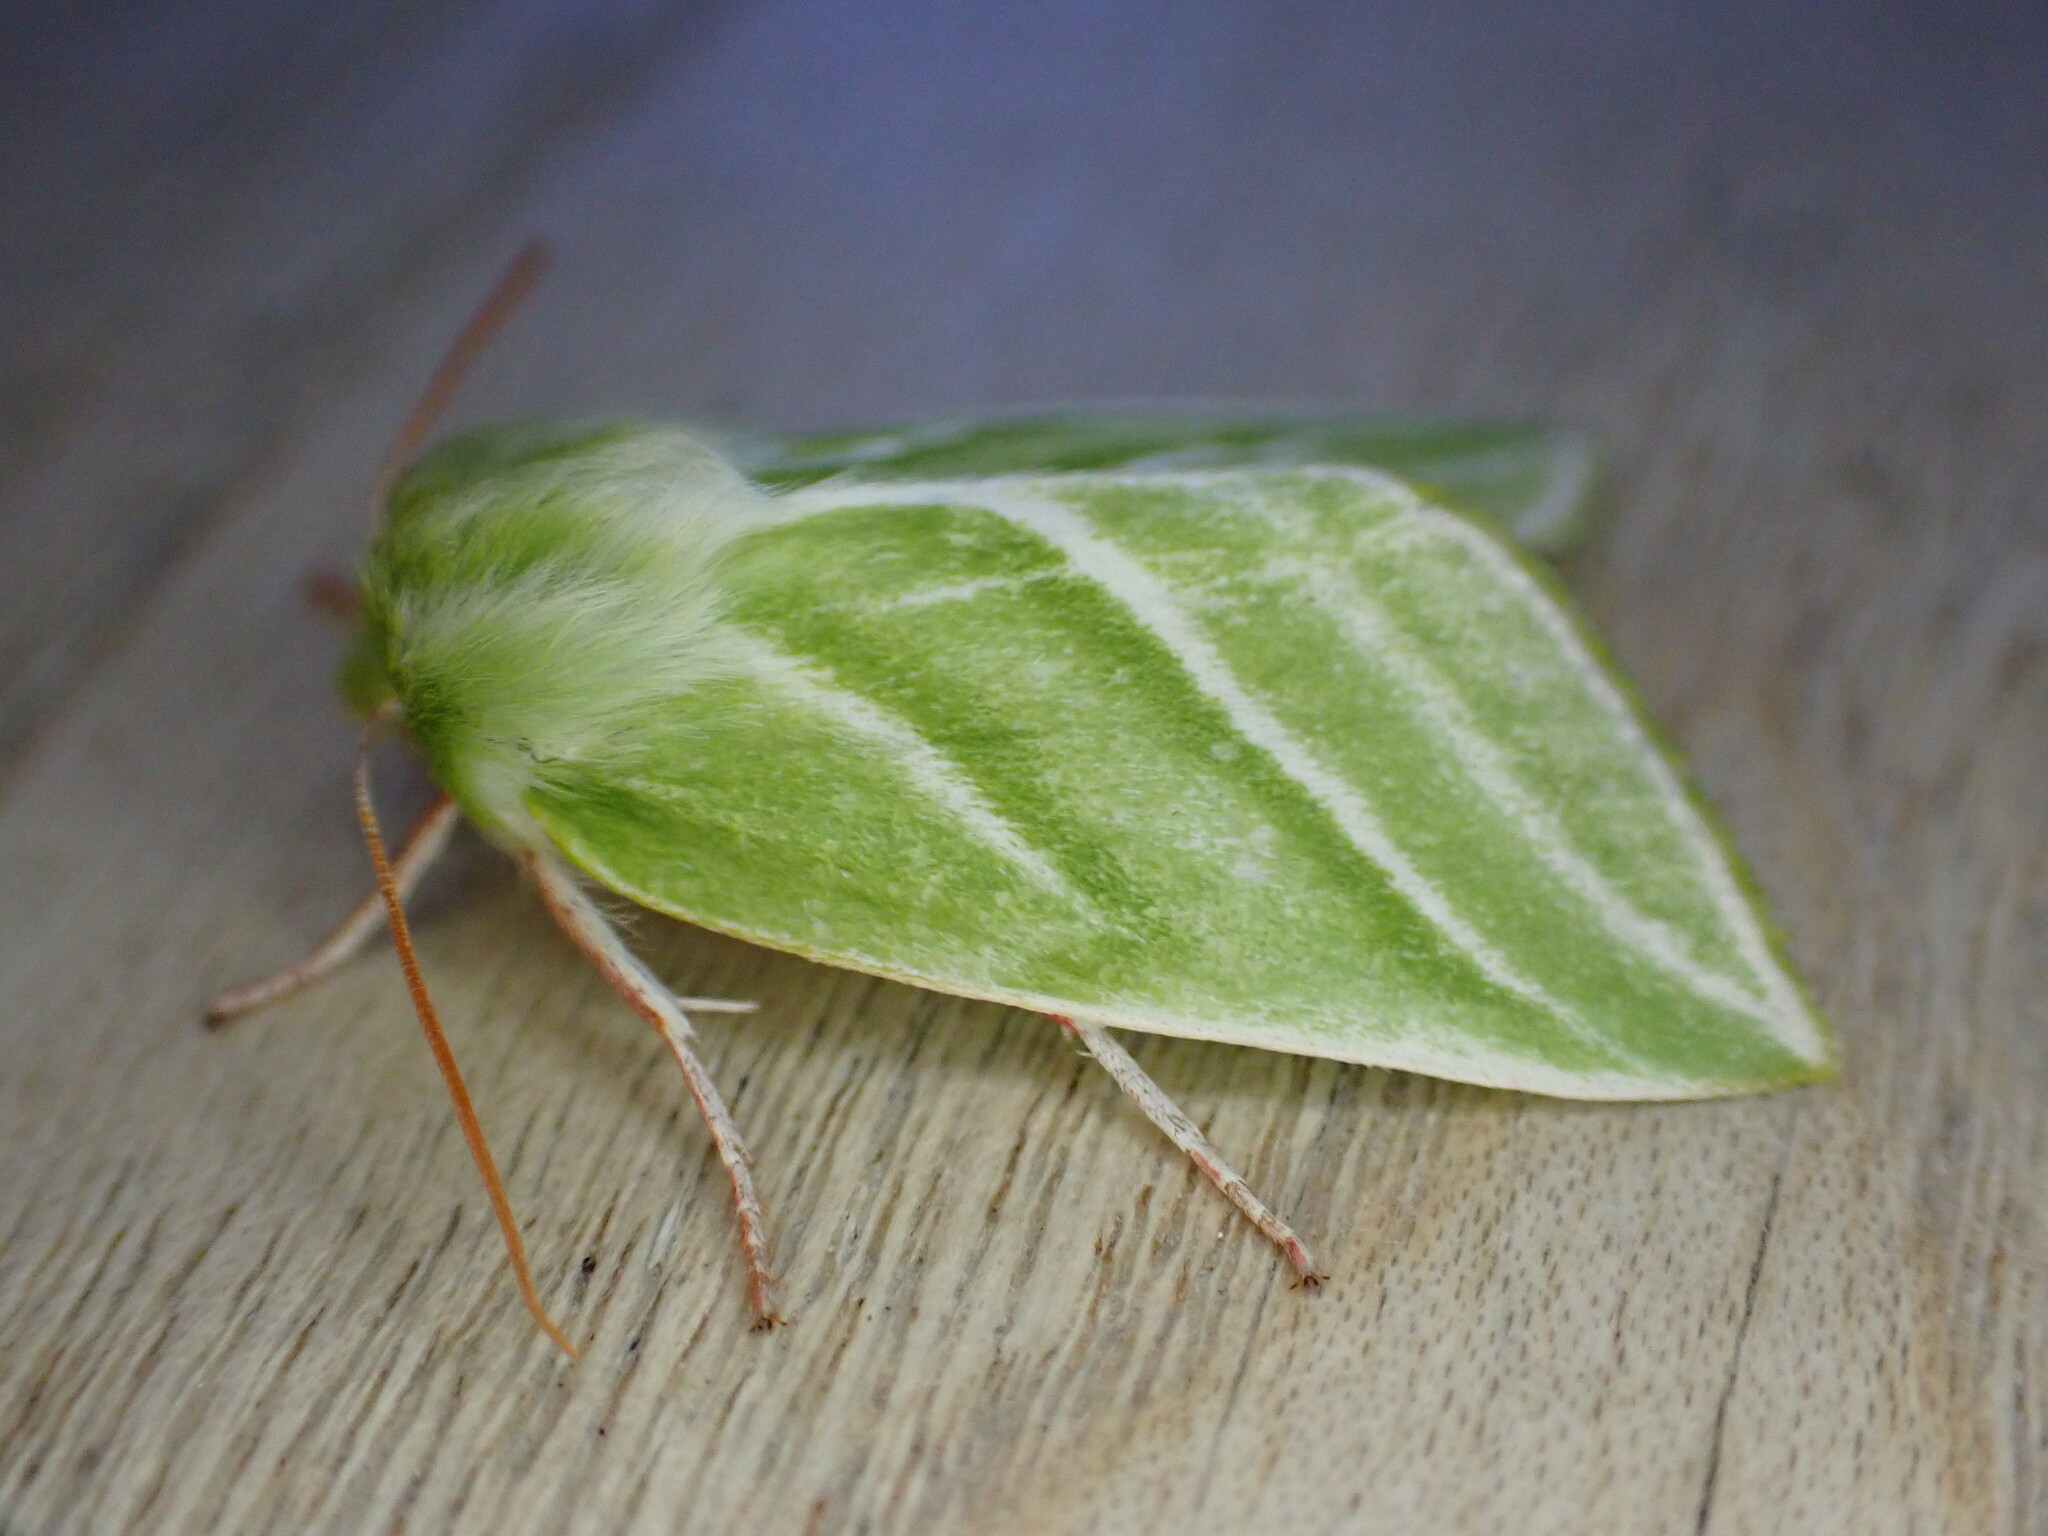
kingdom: Animalia
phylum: Arthropoda
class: Insecta
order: Lepidoptera
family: Nolidae
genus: Pseudoips
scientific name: Pseudoips prasinana
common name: Green silver-lines
